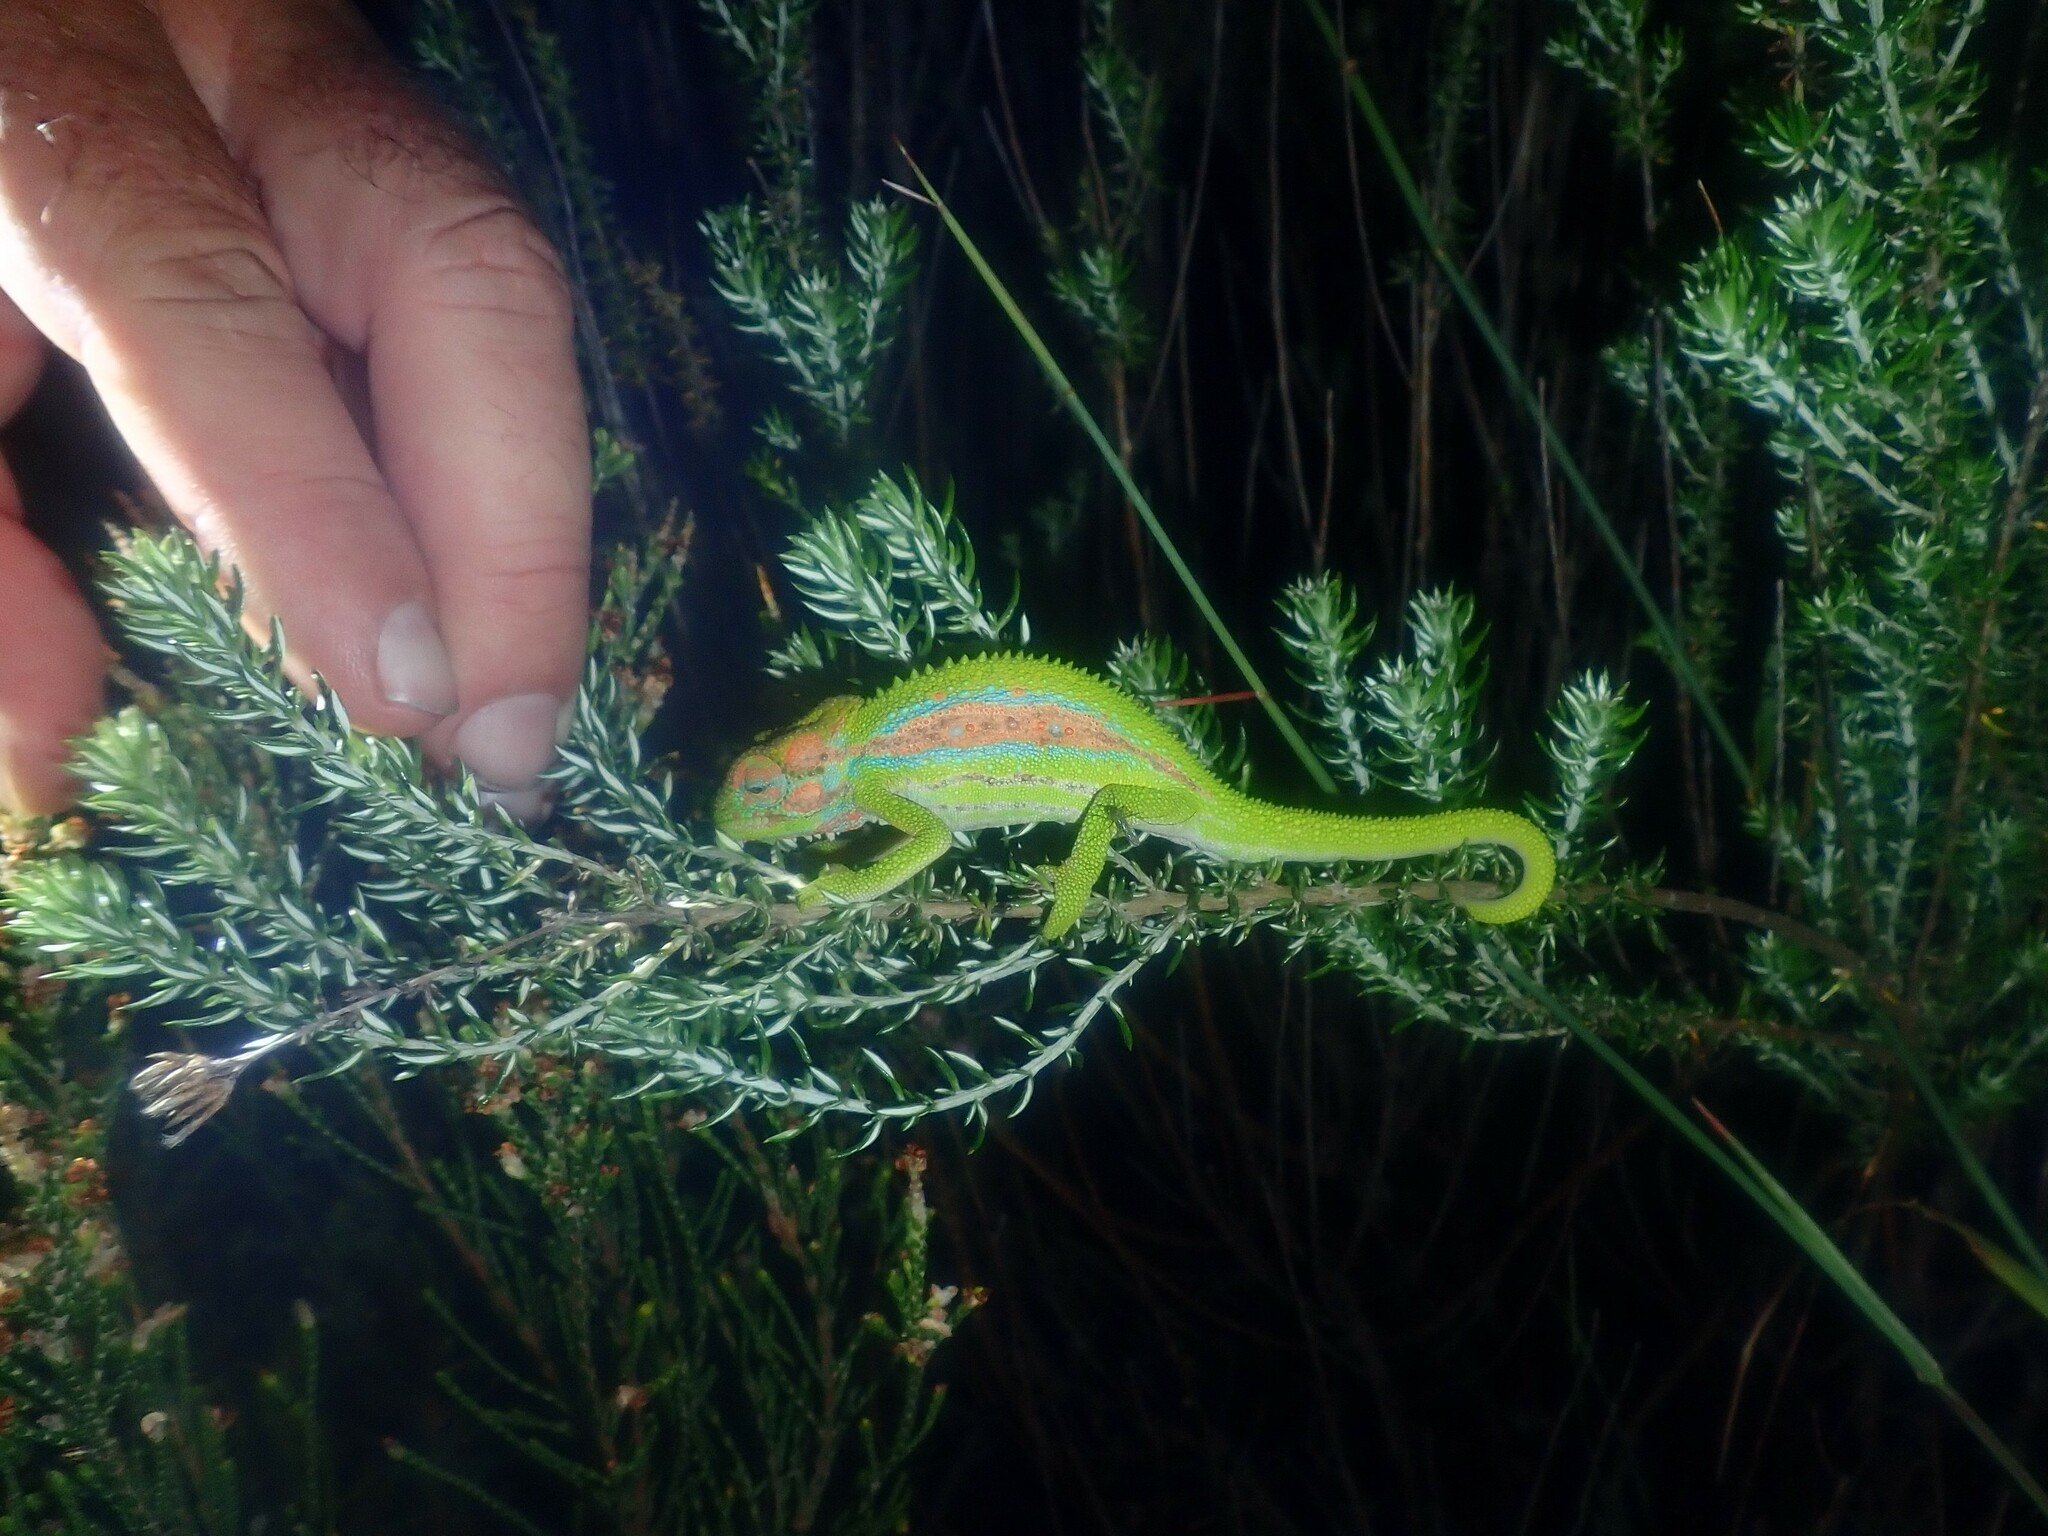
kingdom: Animalia
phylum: Chordata
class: Squamata
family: Chamaeleonidae
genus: Bradypodion
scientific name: Bradypodion pumilum
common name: Cape dwarf chameleon
